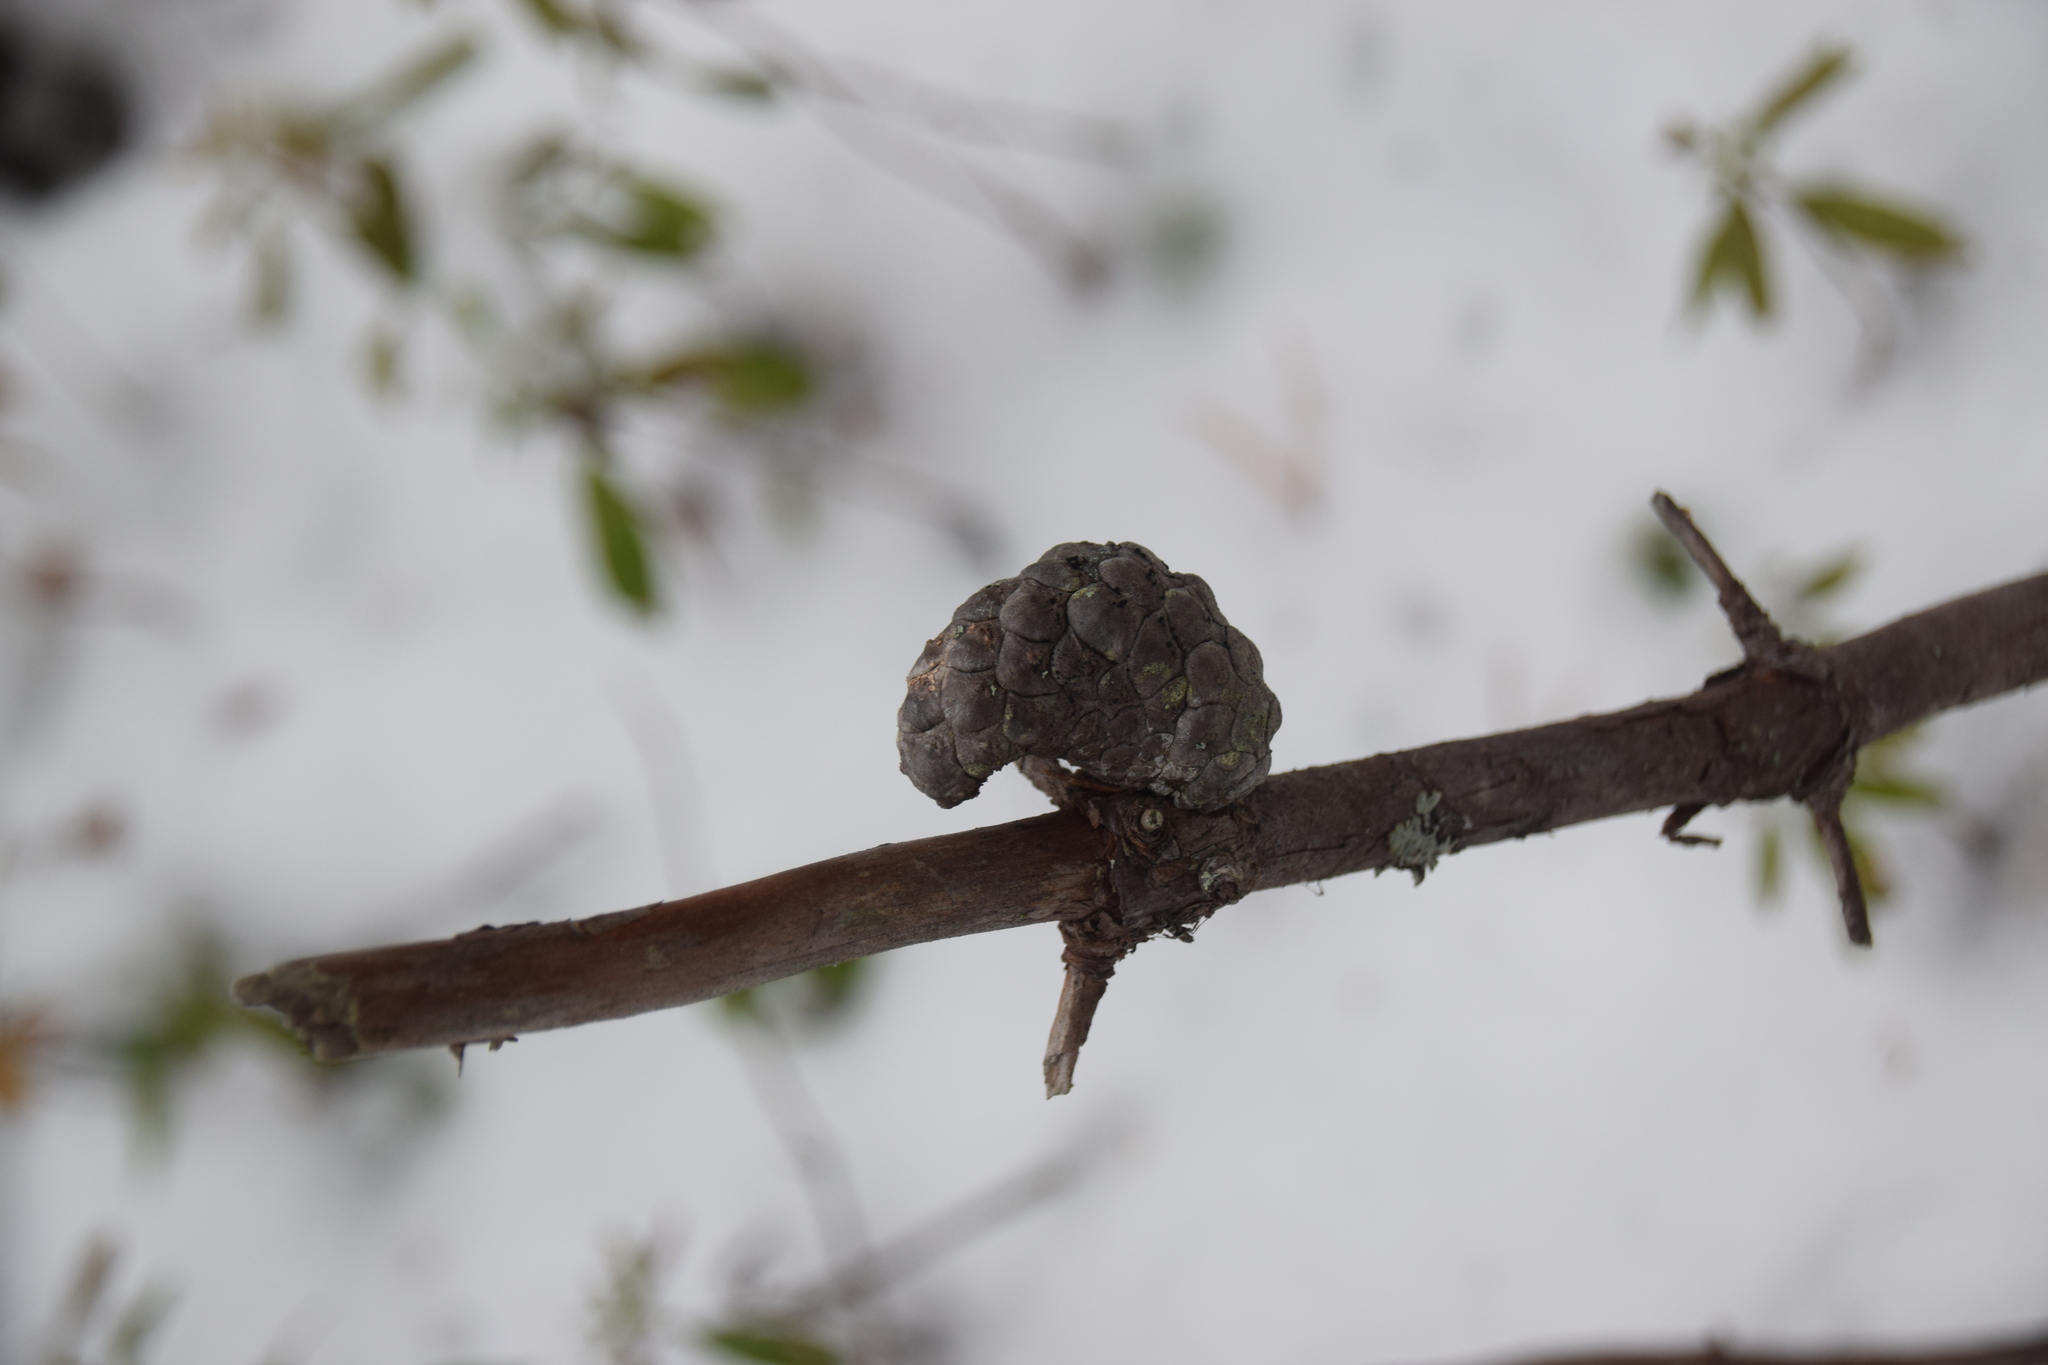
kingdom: Plantae
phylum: Tracheophyta
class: Pinopsida
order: Pinales
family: Pinaceae
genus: Pinus
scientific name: Pinus banksiana
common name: Jack pine
